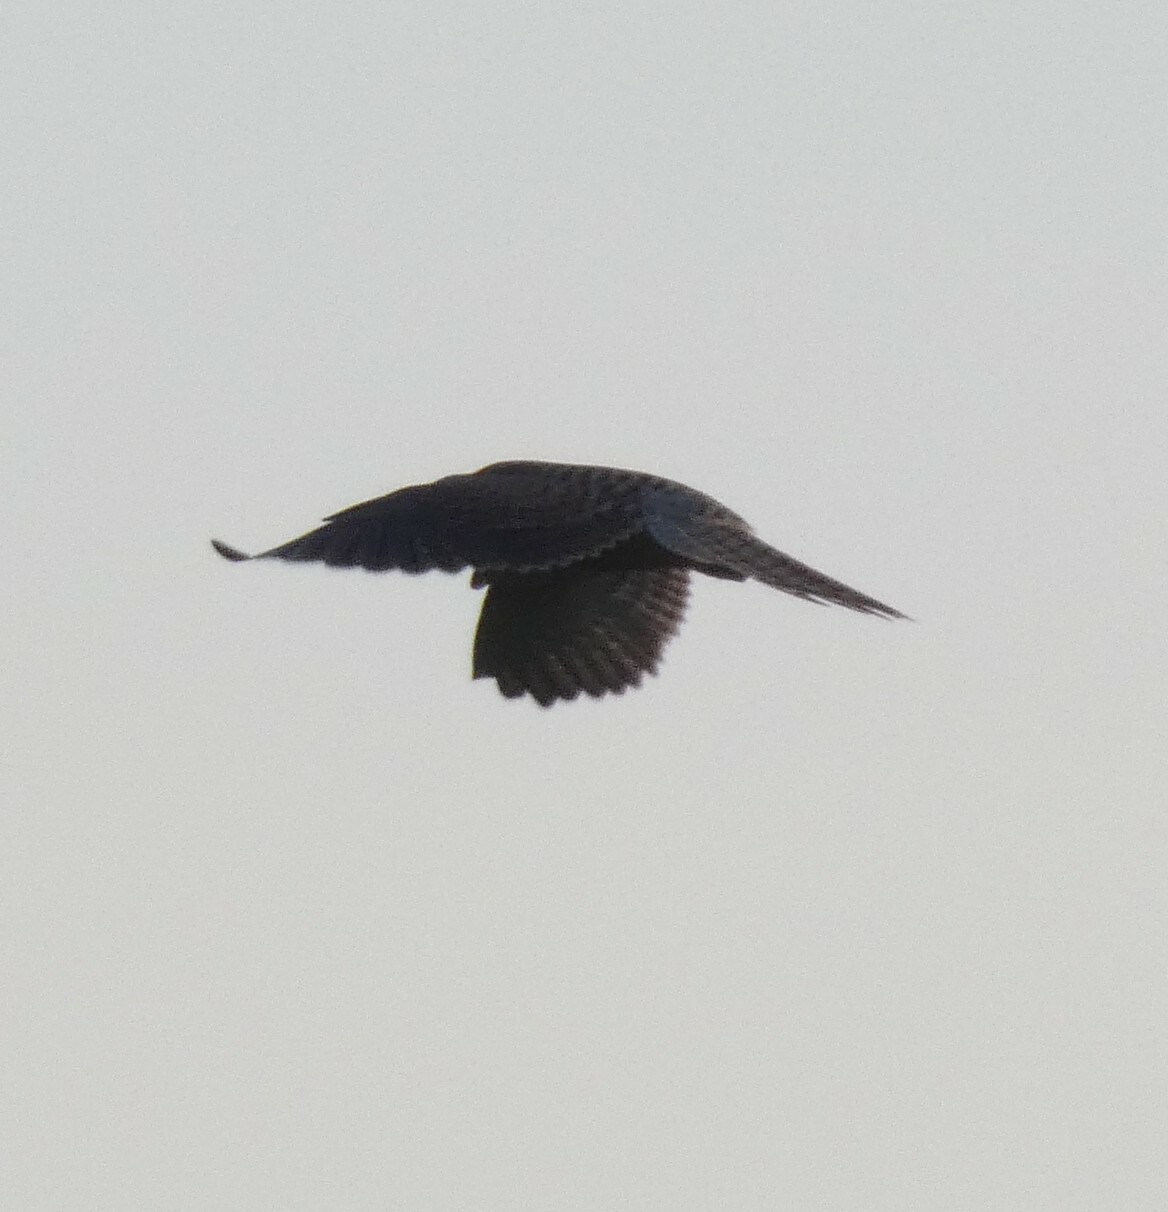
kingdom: Animalia
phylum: Chordata
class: Aves
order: Falconiformes
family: Falconidae
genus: Falco
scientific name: Falco tinnunculus
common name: Common kestrel
